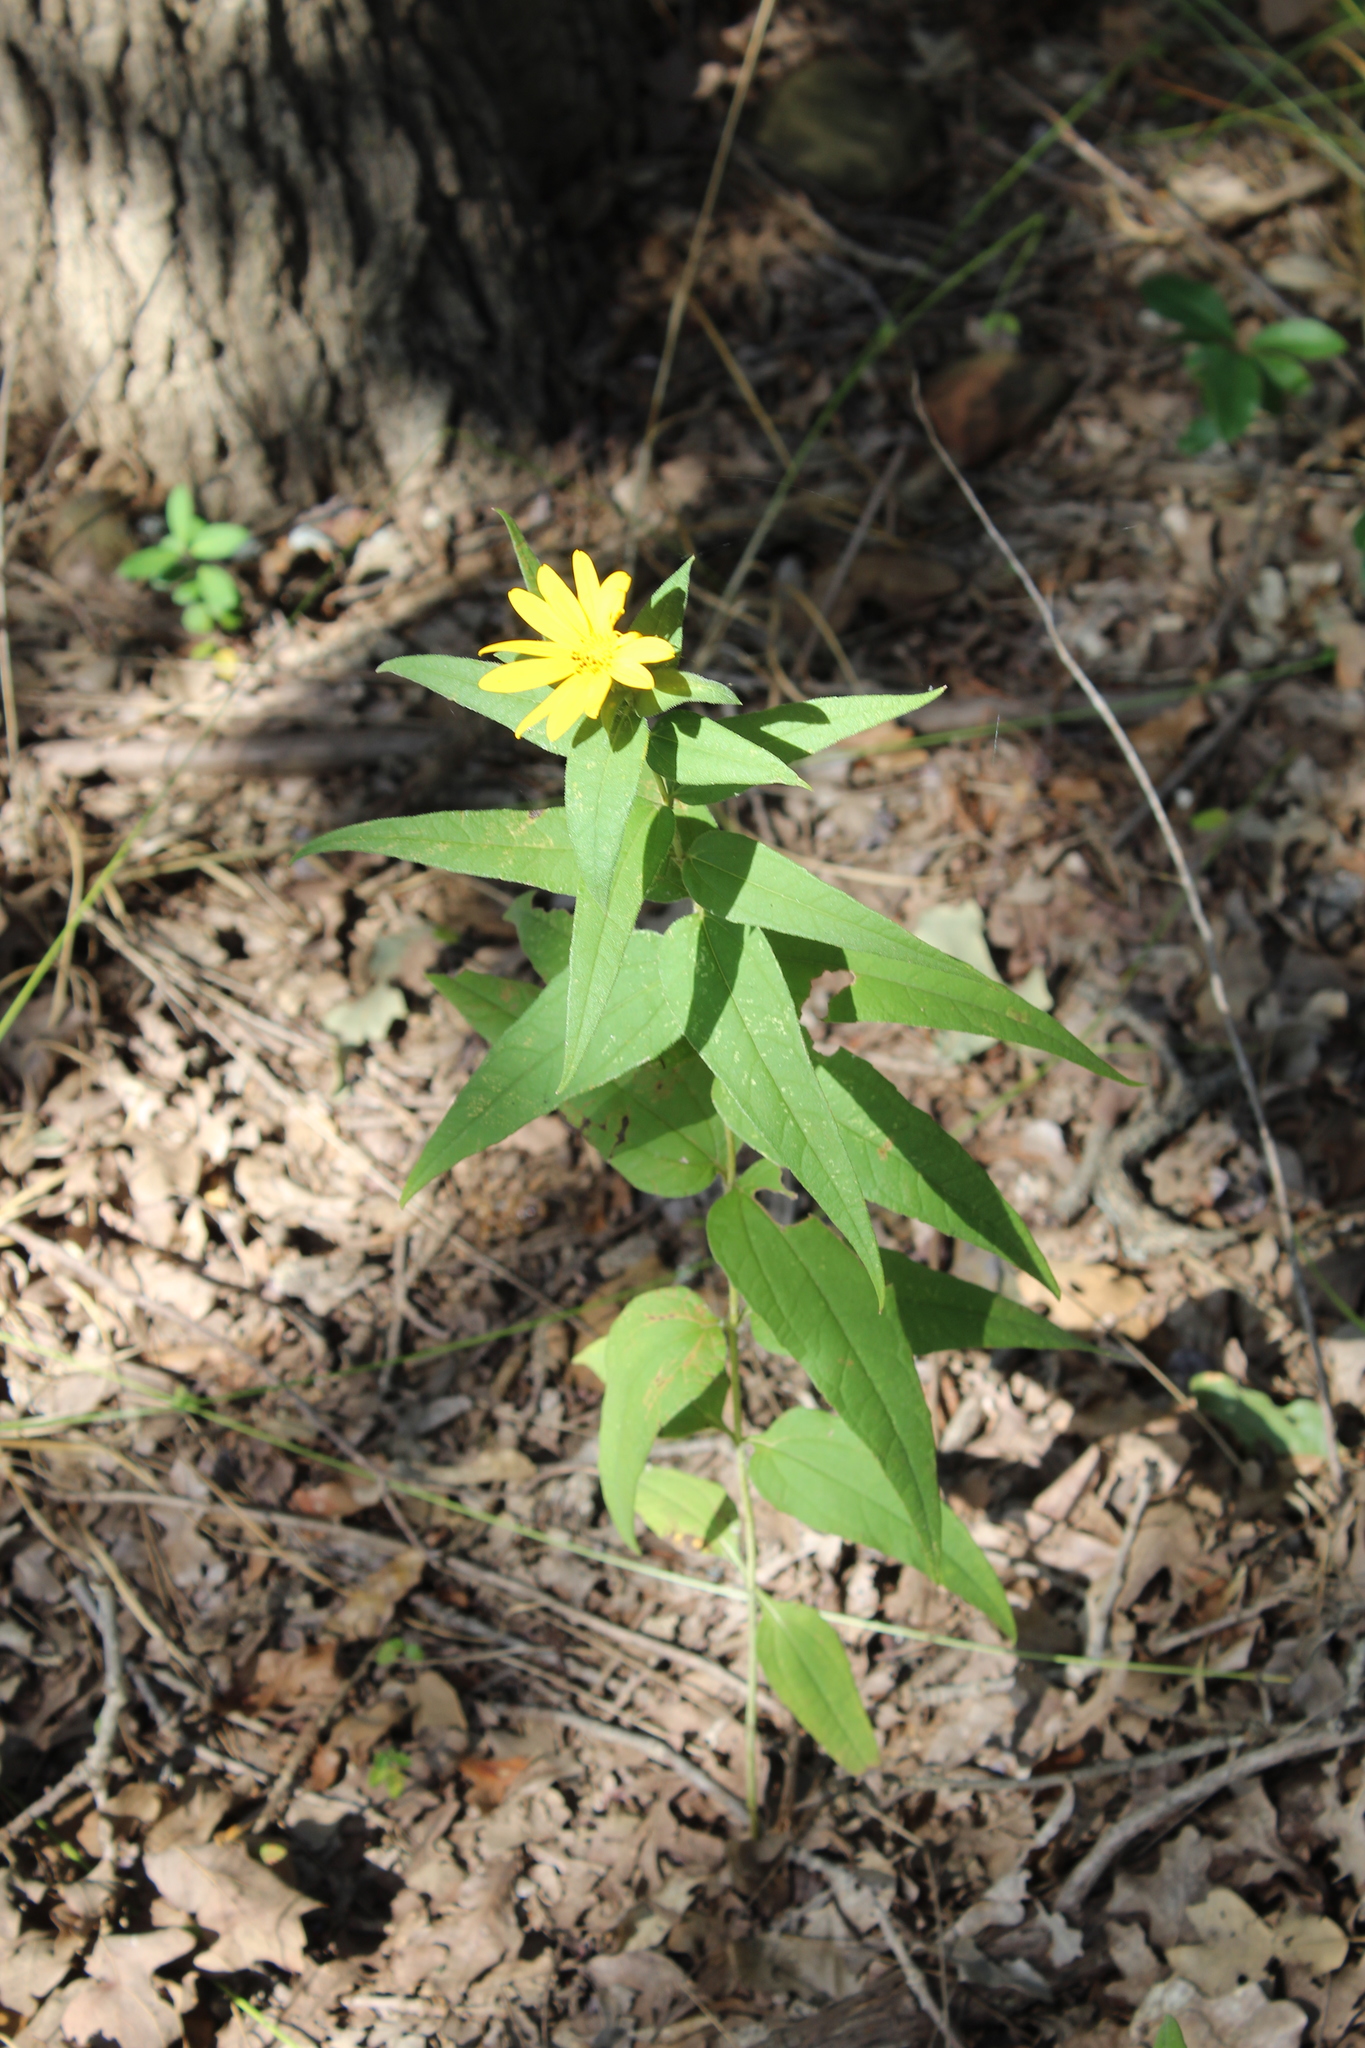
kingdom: Plantae
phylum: Tracheophyta
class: Magnoliopsida
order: Asterales
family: Asteraceae
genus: Helianthus
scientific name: Helianthus hirsutus
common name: Hairy sunflower
